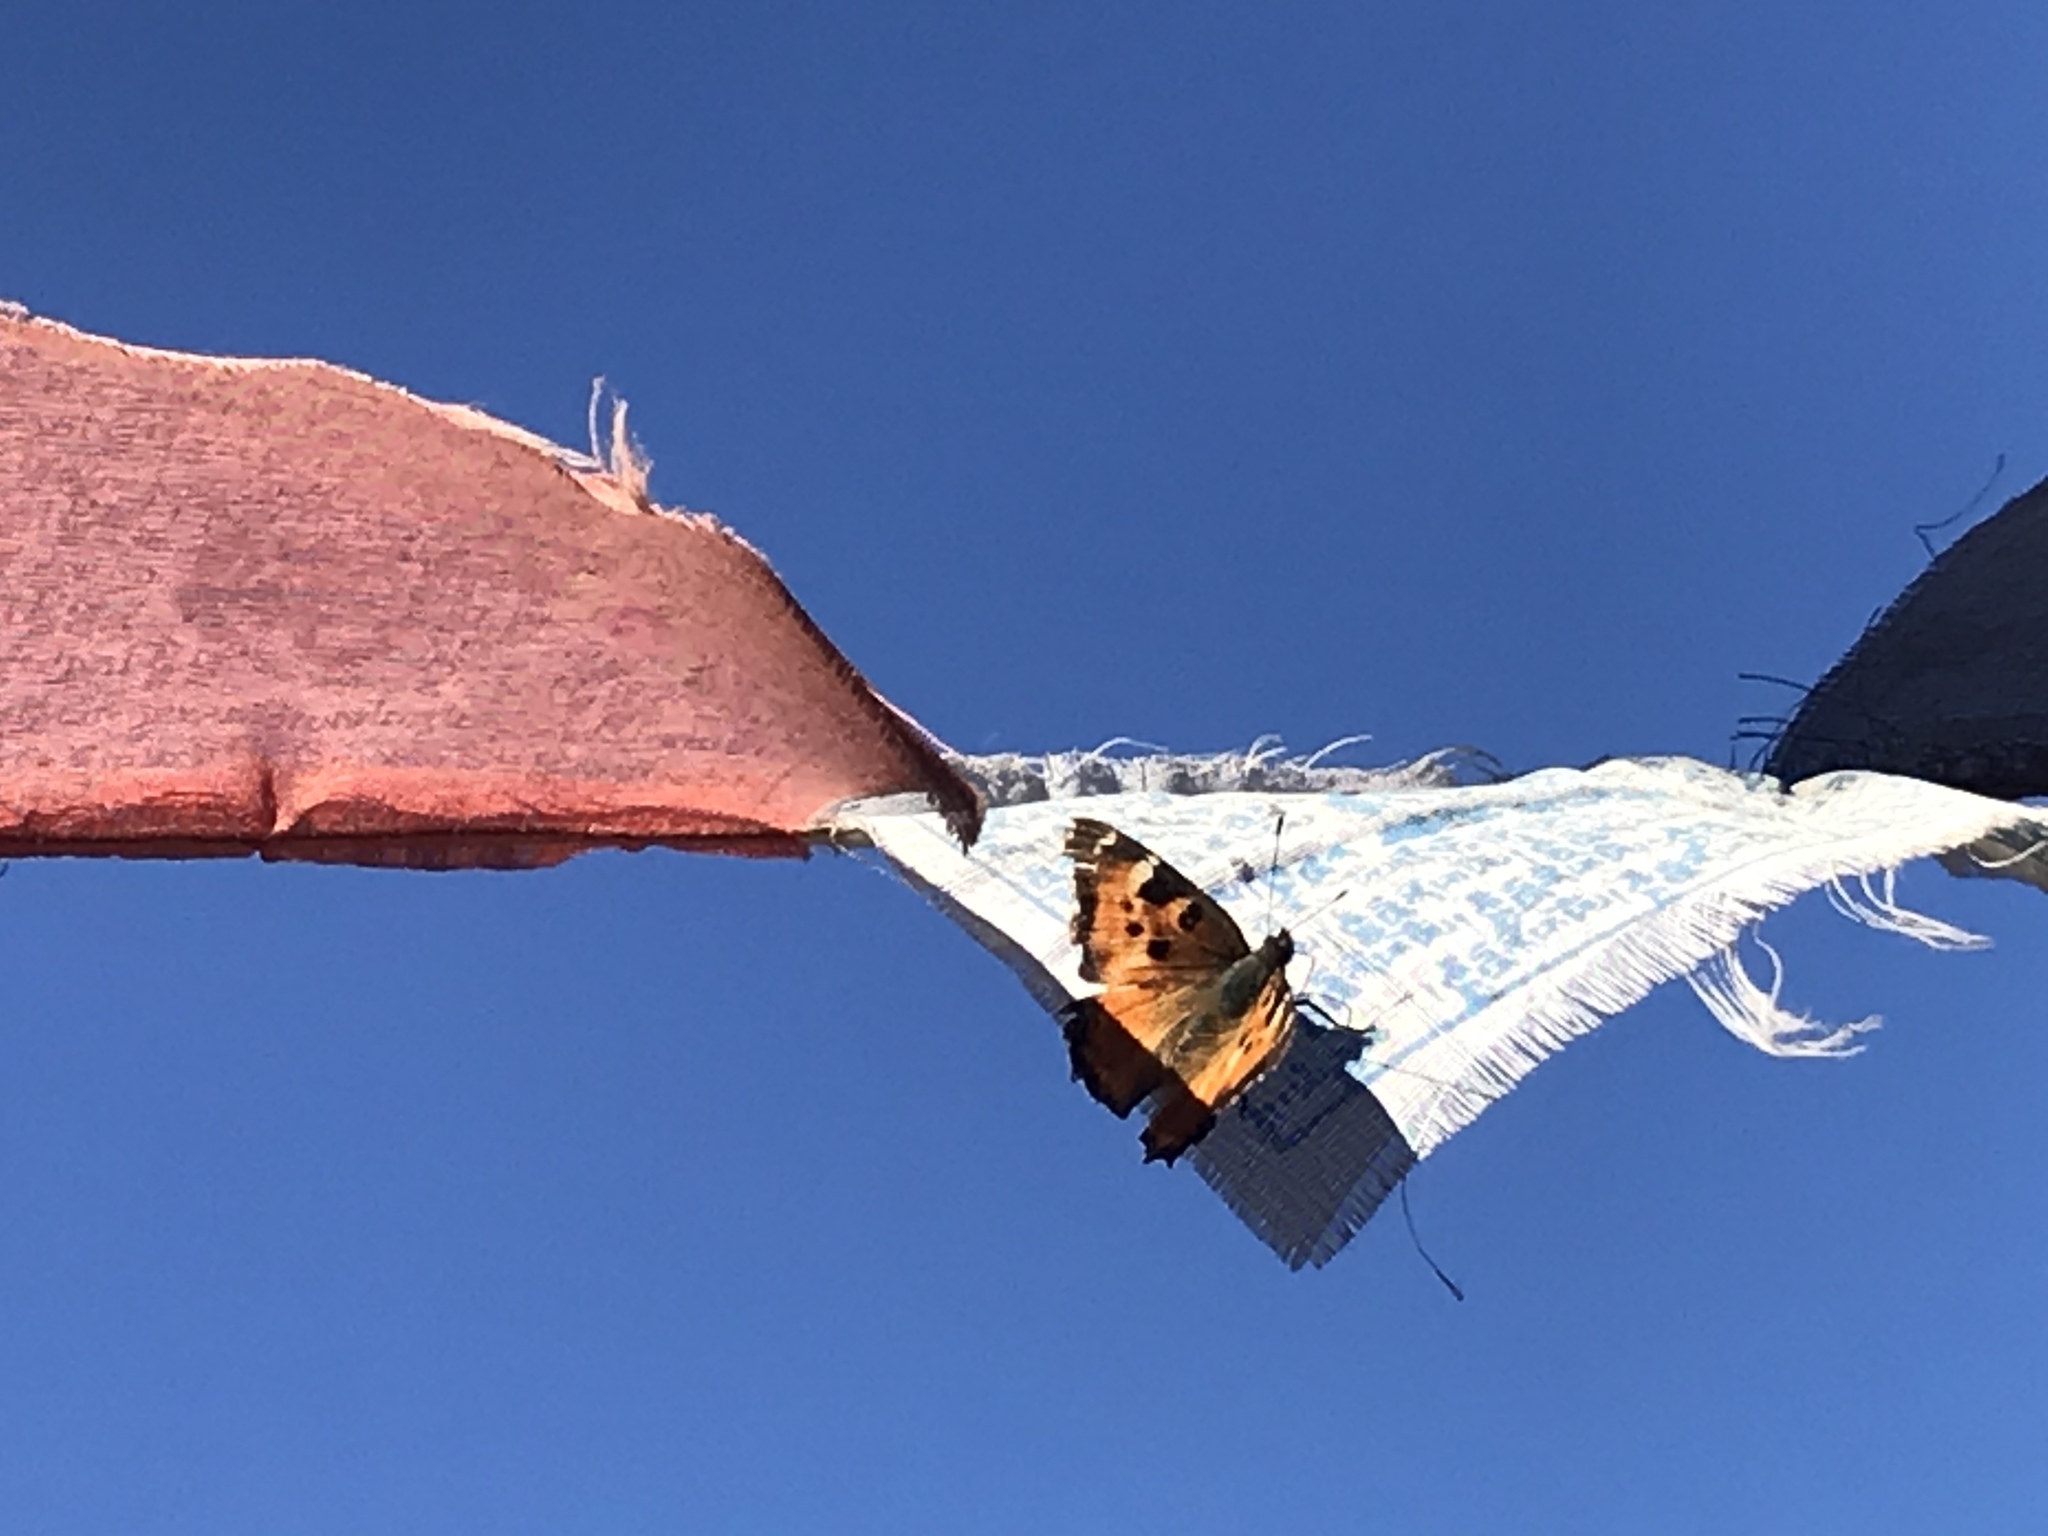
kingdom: Animalia
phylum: Arthropoda
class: Insecta
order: Lepidoptera
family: Nymphalidae
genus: Nymphalis
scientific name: Nymphalis californica
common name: California tortoiseshell
